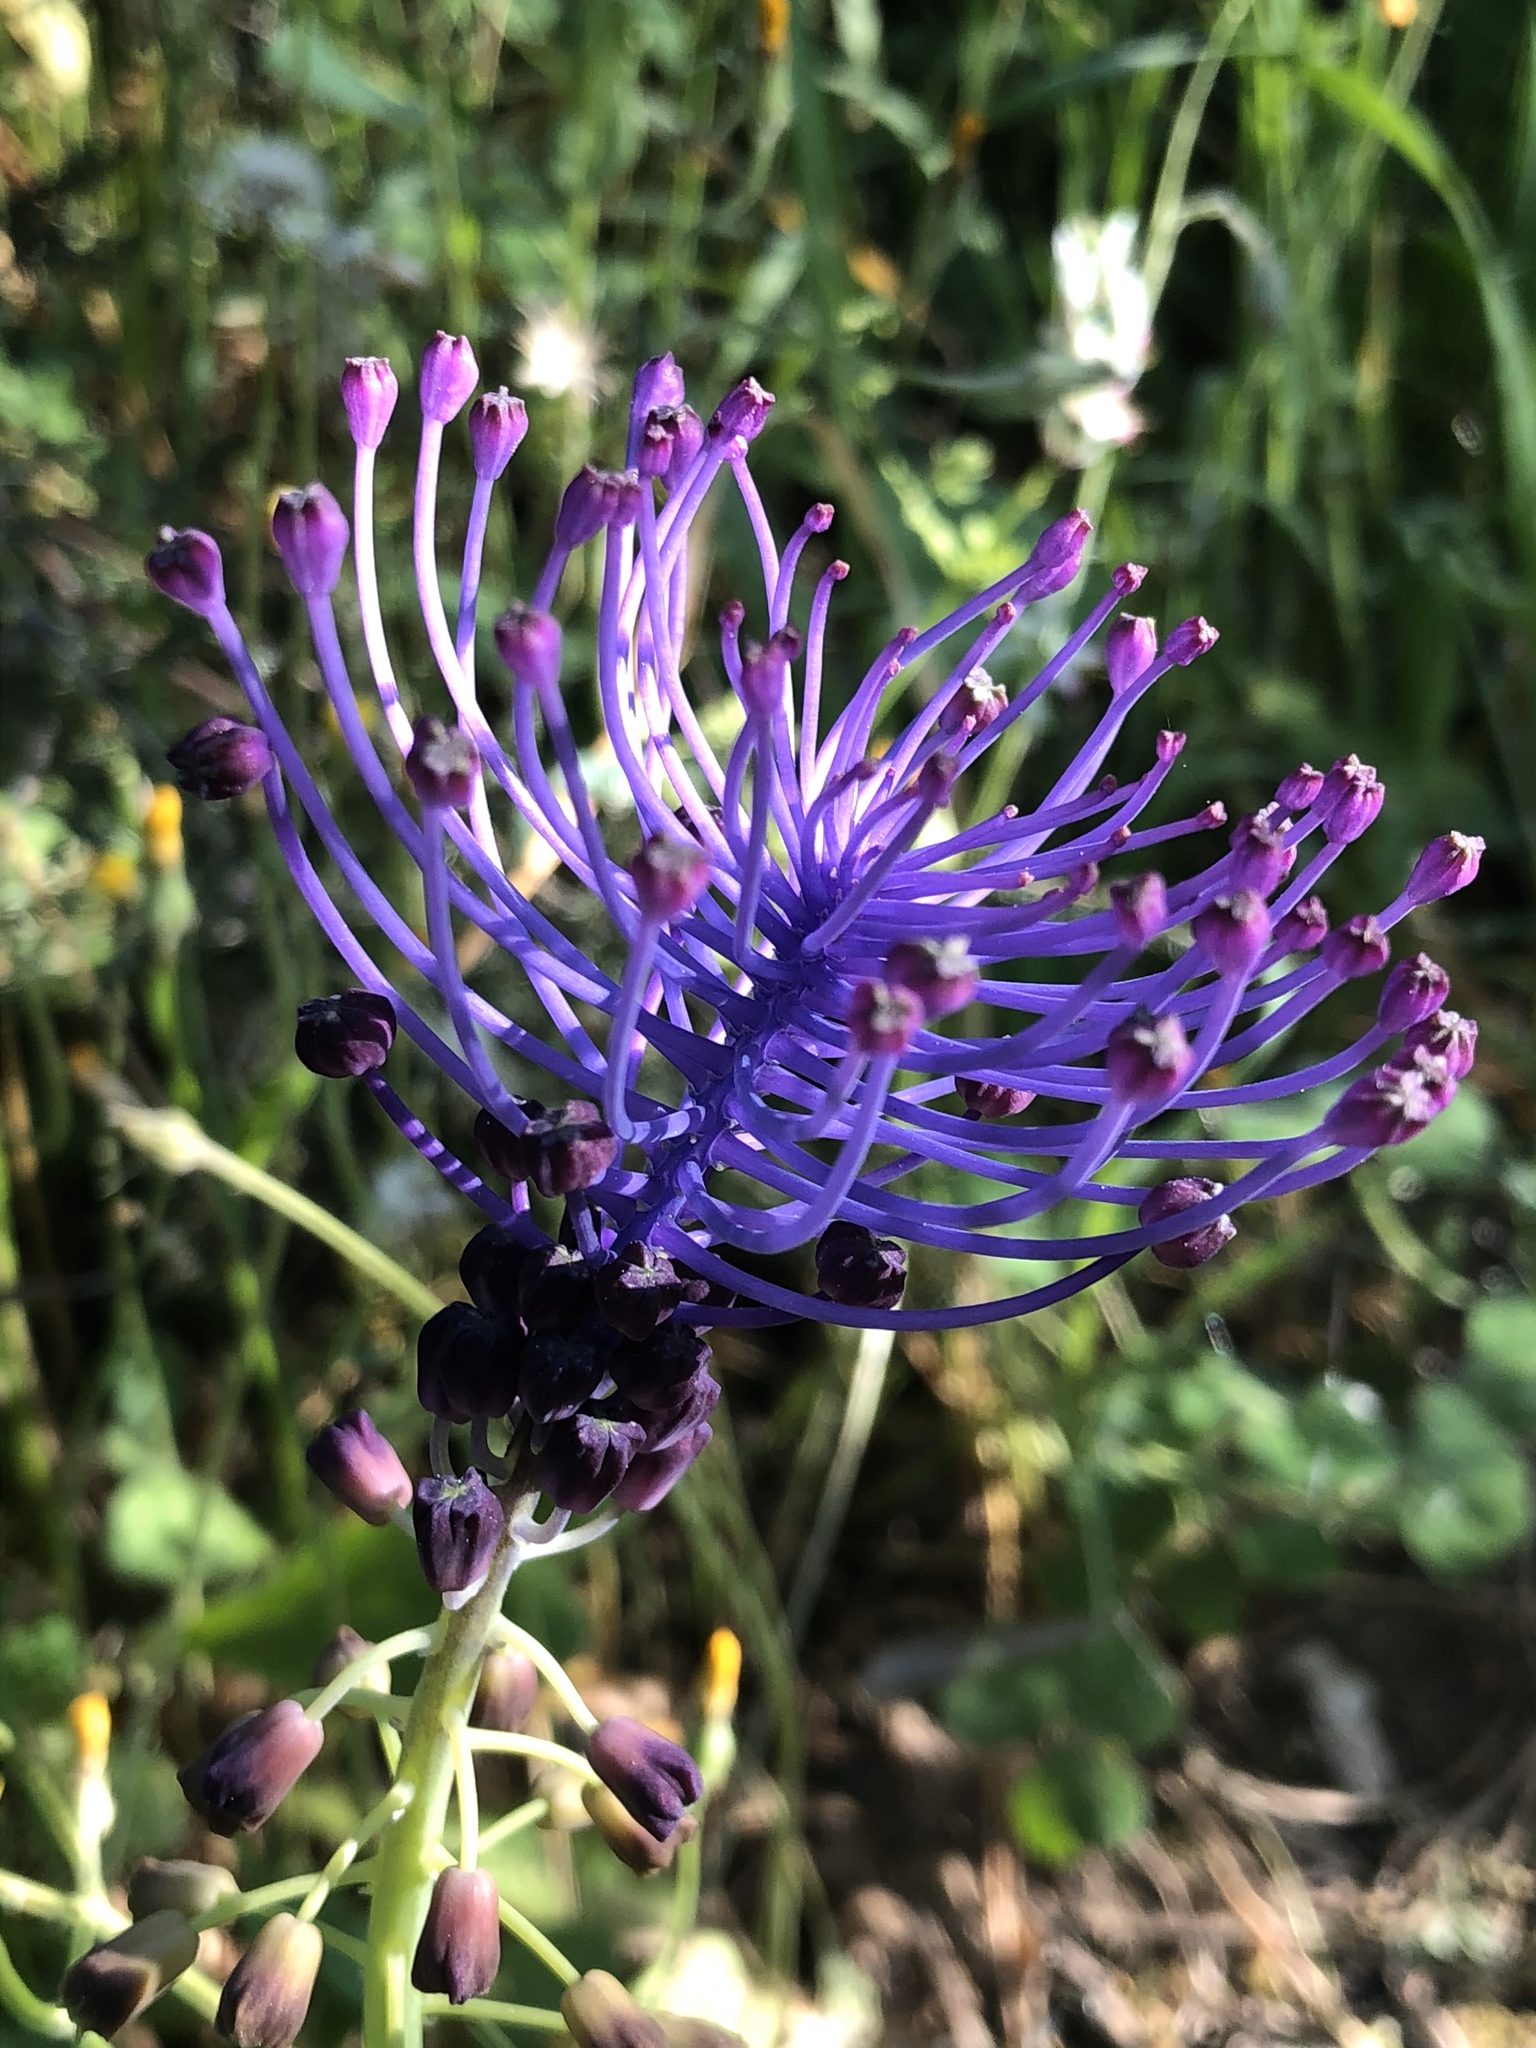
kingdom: Plantae
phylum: Tracheophyta
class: Liliopsida
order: Asparagales
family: Asparagaceae
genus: Muscari
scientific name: Muscari comosum
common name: Tassel hyacinth
